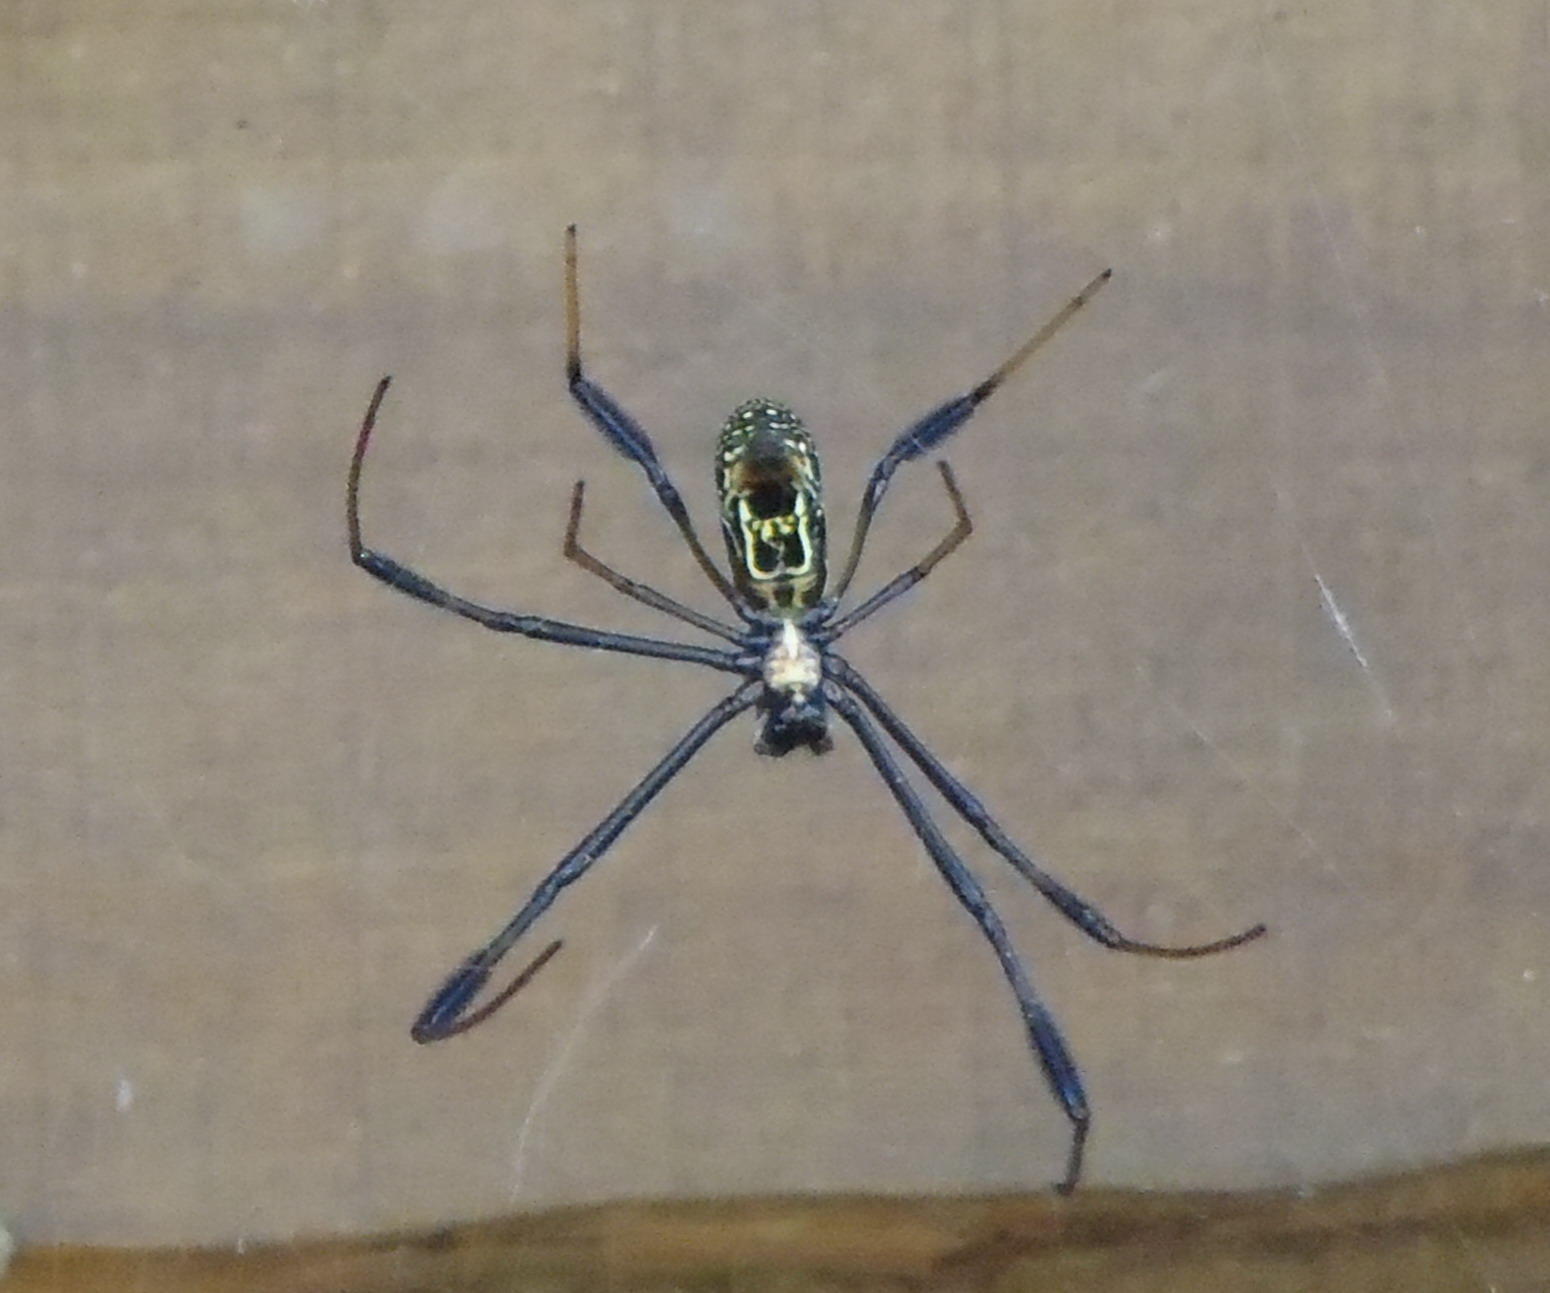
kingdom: Animalia
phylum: Arthropoda
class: Arachnida
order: Araneae
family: Araneidae
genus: Trichonephila
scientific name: Trichonephila fenestrata
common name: Hairy golden orb weaver
